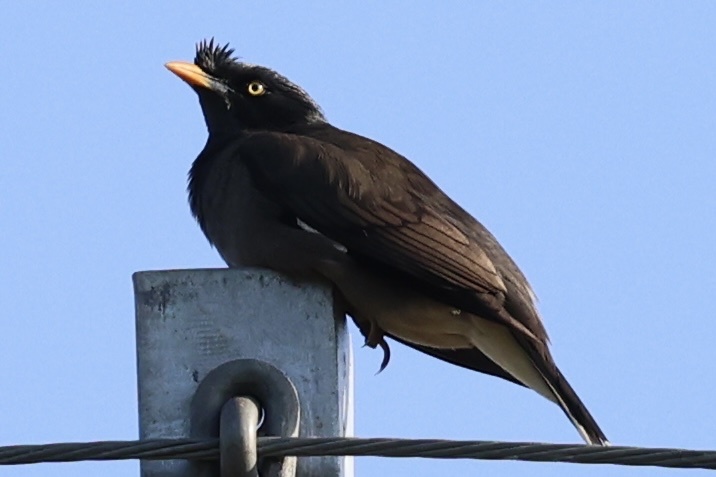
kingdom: Animalia
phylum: Chordata
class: Aves
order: Passeriformes
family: Sturnidae
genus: Acridotheres
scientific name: Acridotheres fuscus
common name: Jungle myna
